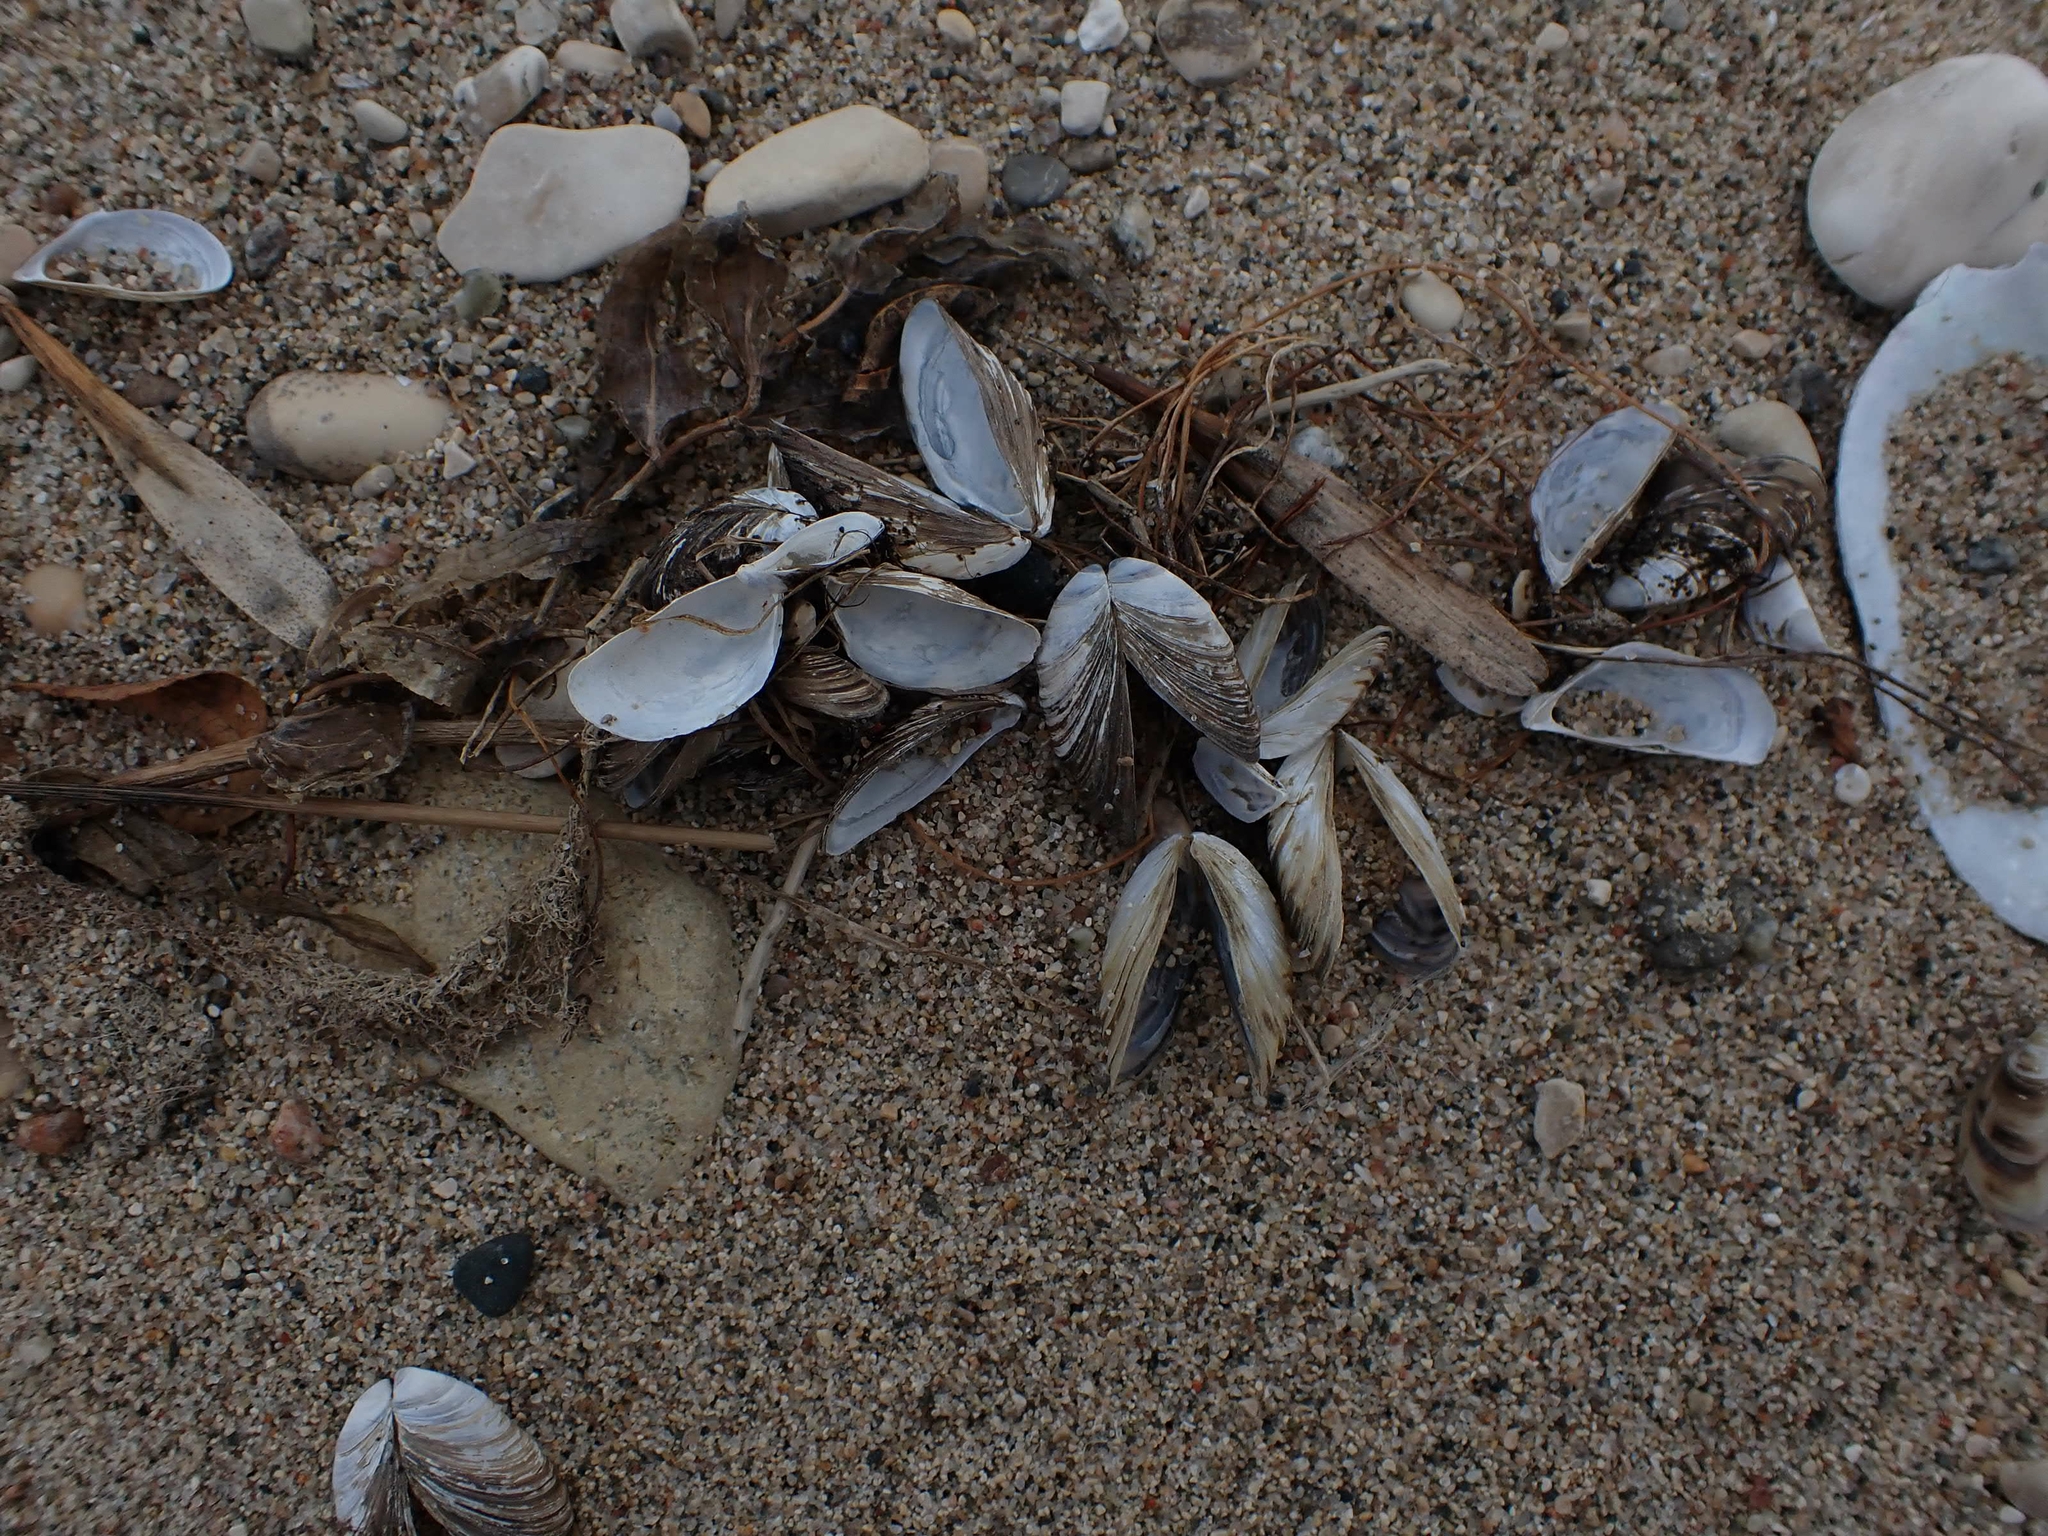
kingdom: Animalia
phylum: Mollusca
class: Bivalvia
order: Myida
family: Dreissenidae
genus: Dreissena
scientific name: Dreissena polymorpha
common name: Zebra mussel
